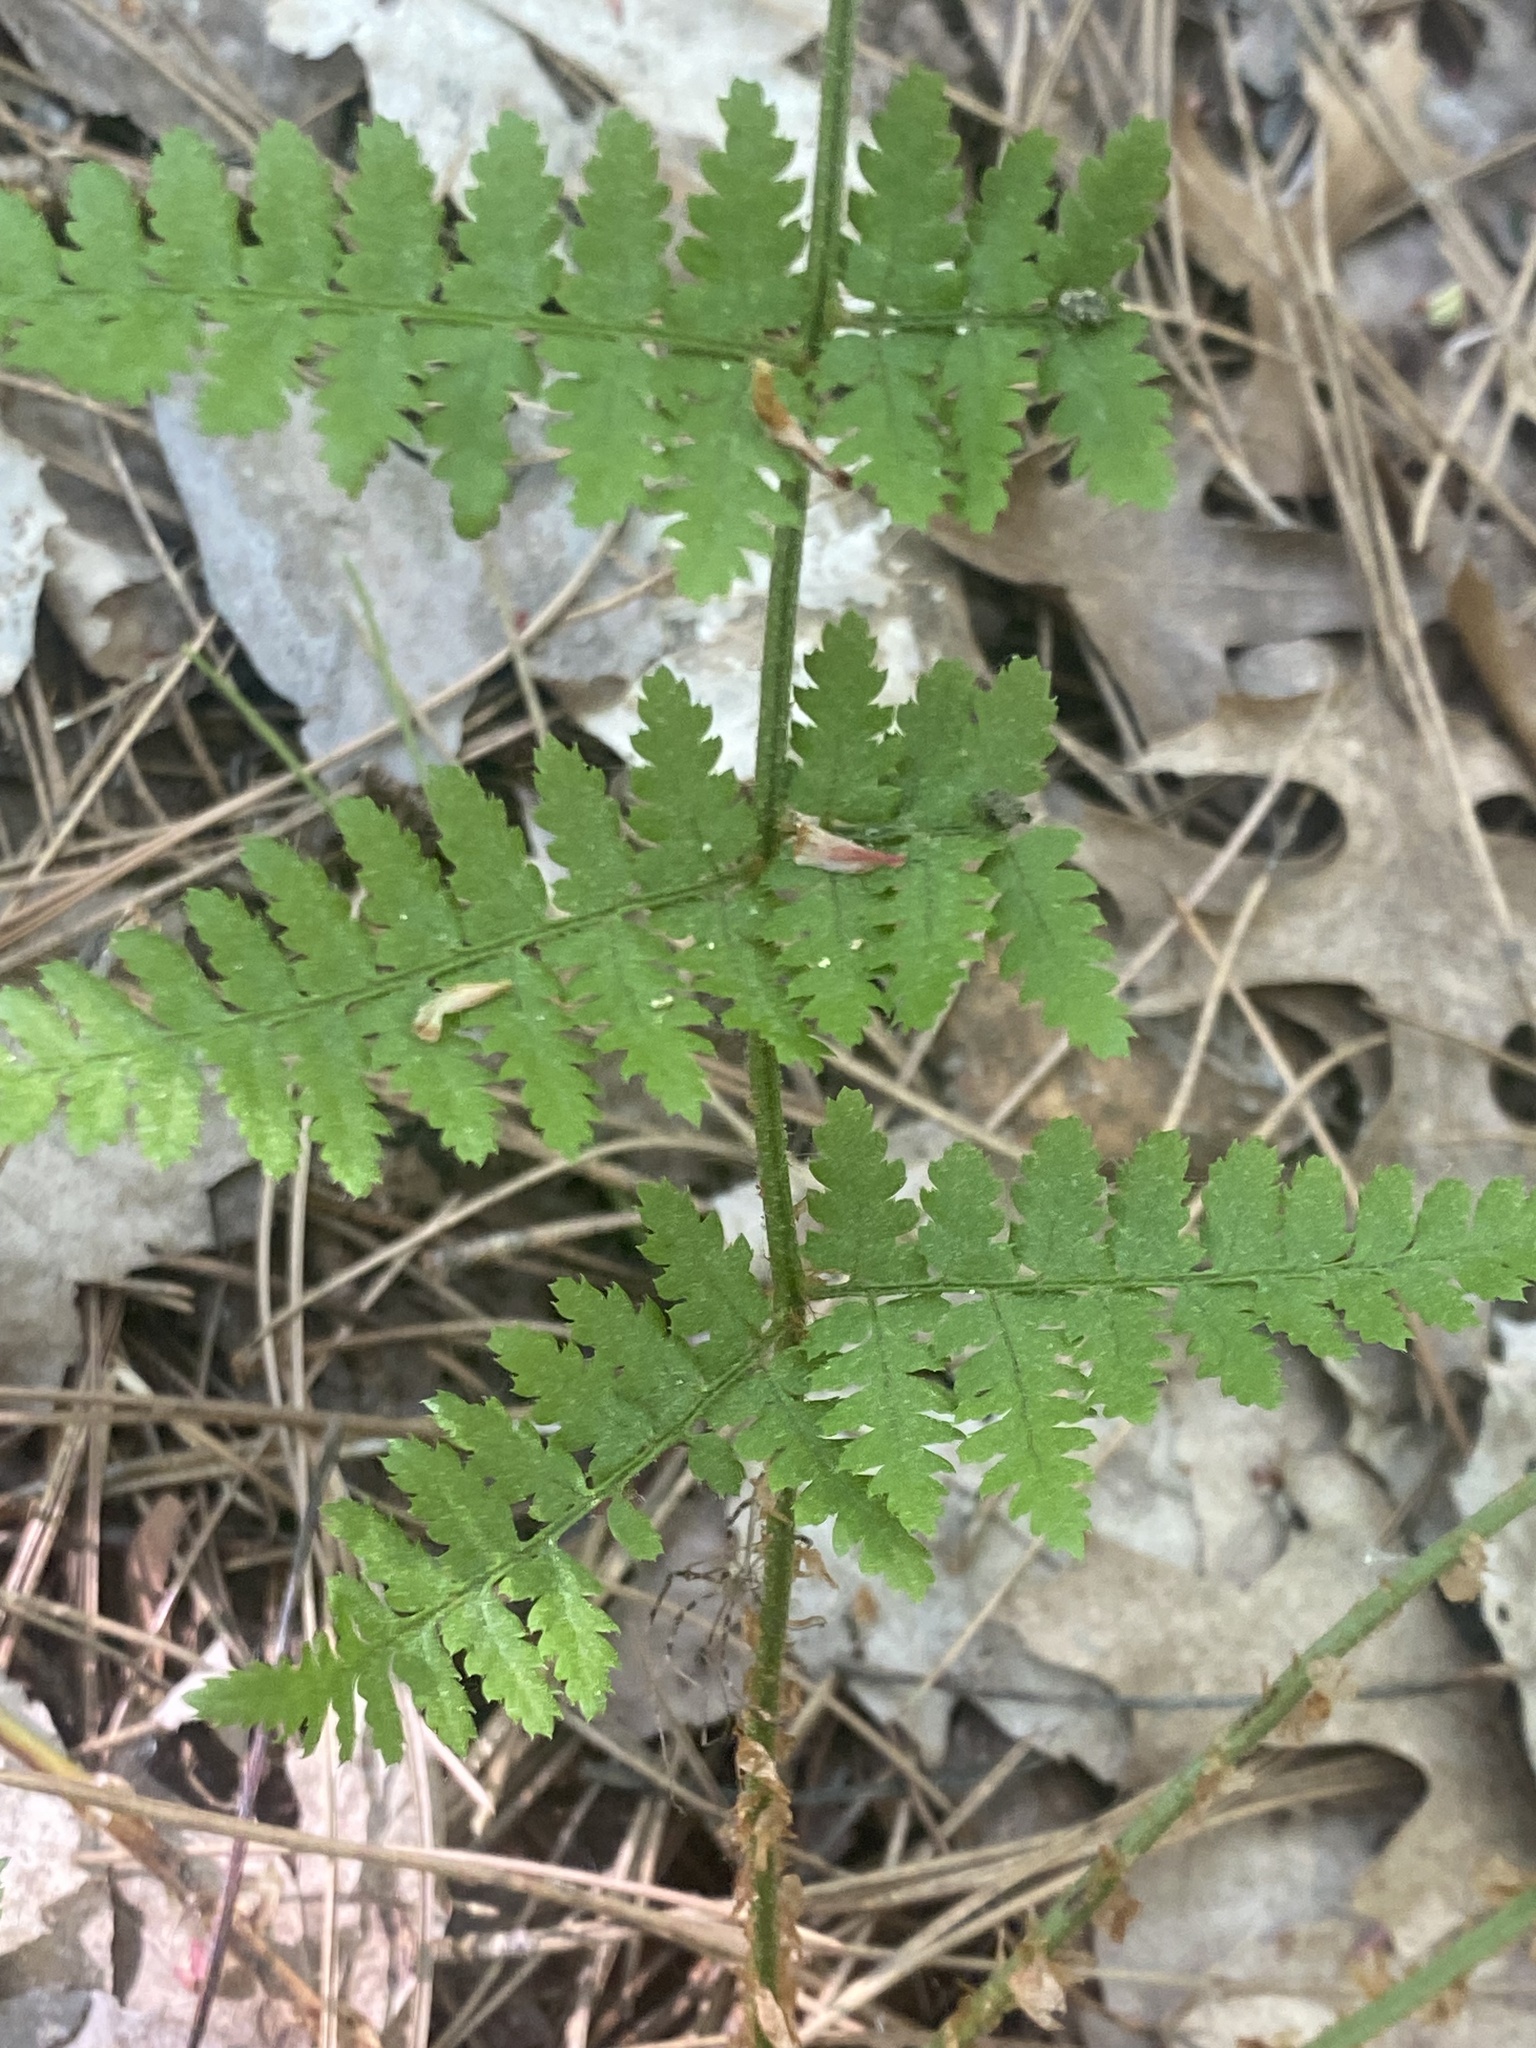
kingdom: Plantae
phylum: Tracheophyta
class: Polypodiopsida
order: Polypodiales
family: Dryopteridaceae
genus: Dryopteris
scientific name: Dryopteris intermedia
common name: Evergreen wood fern
